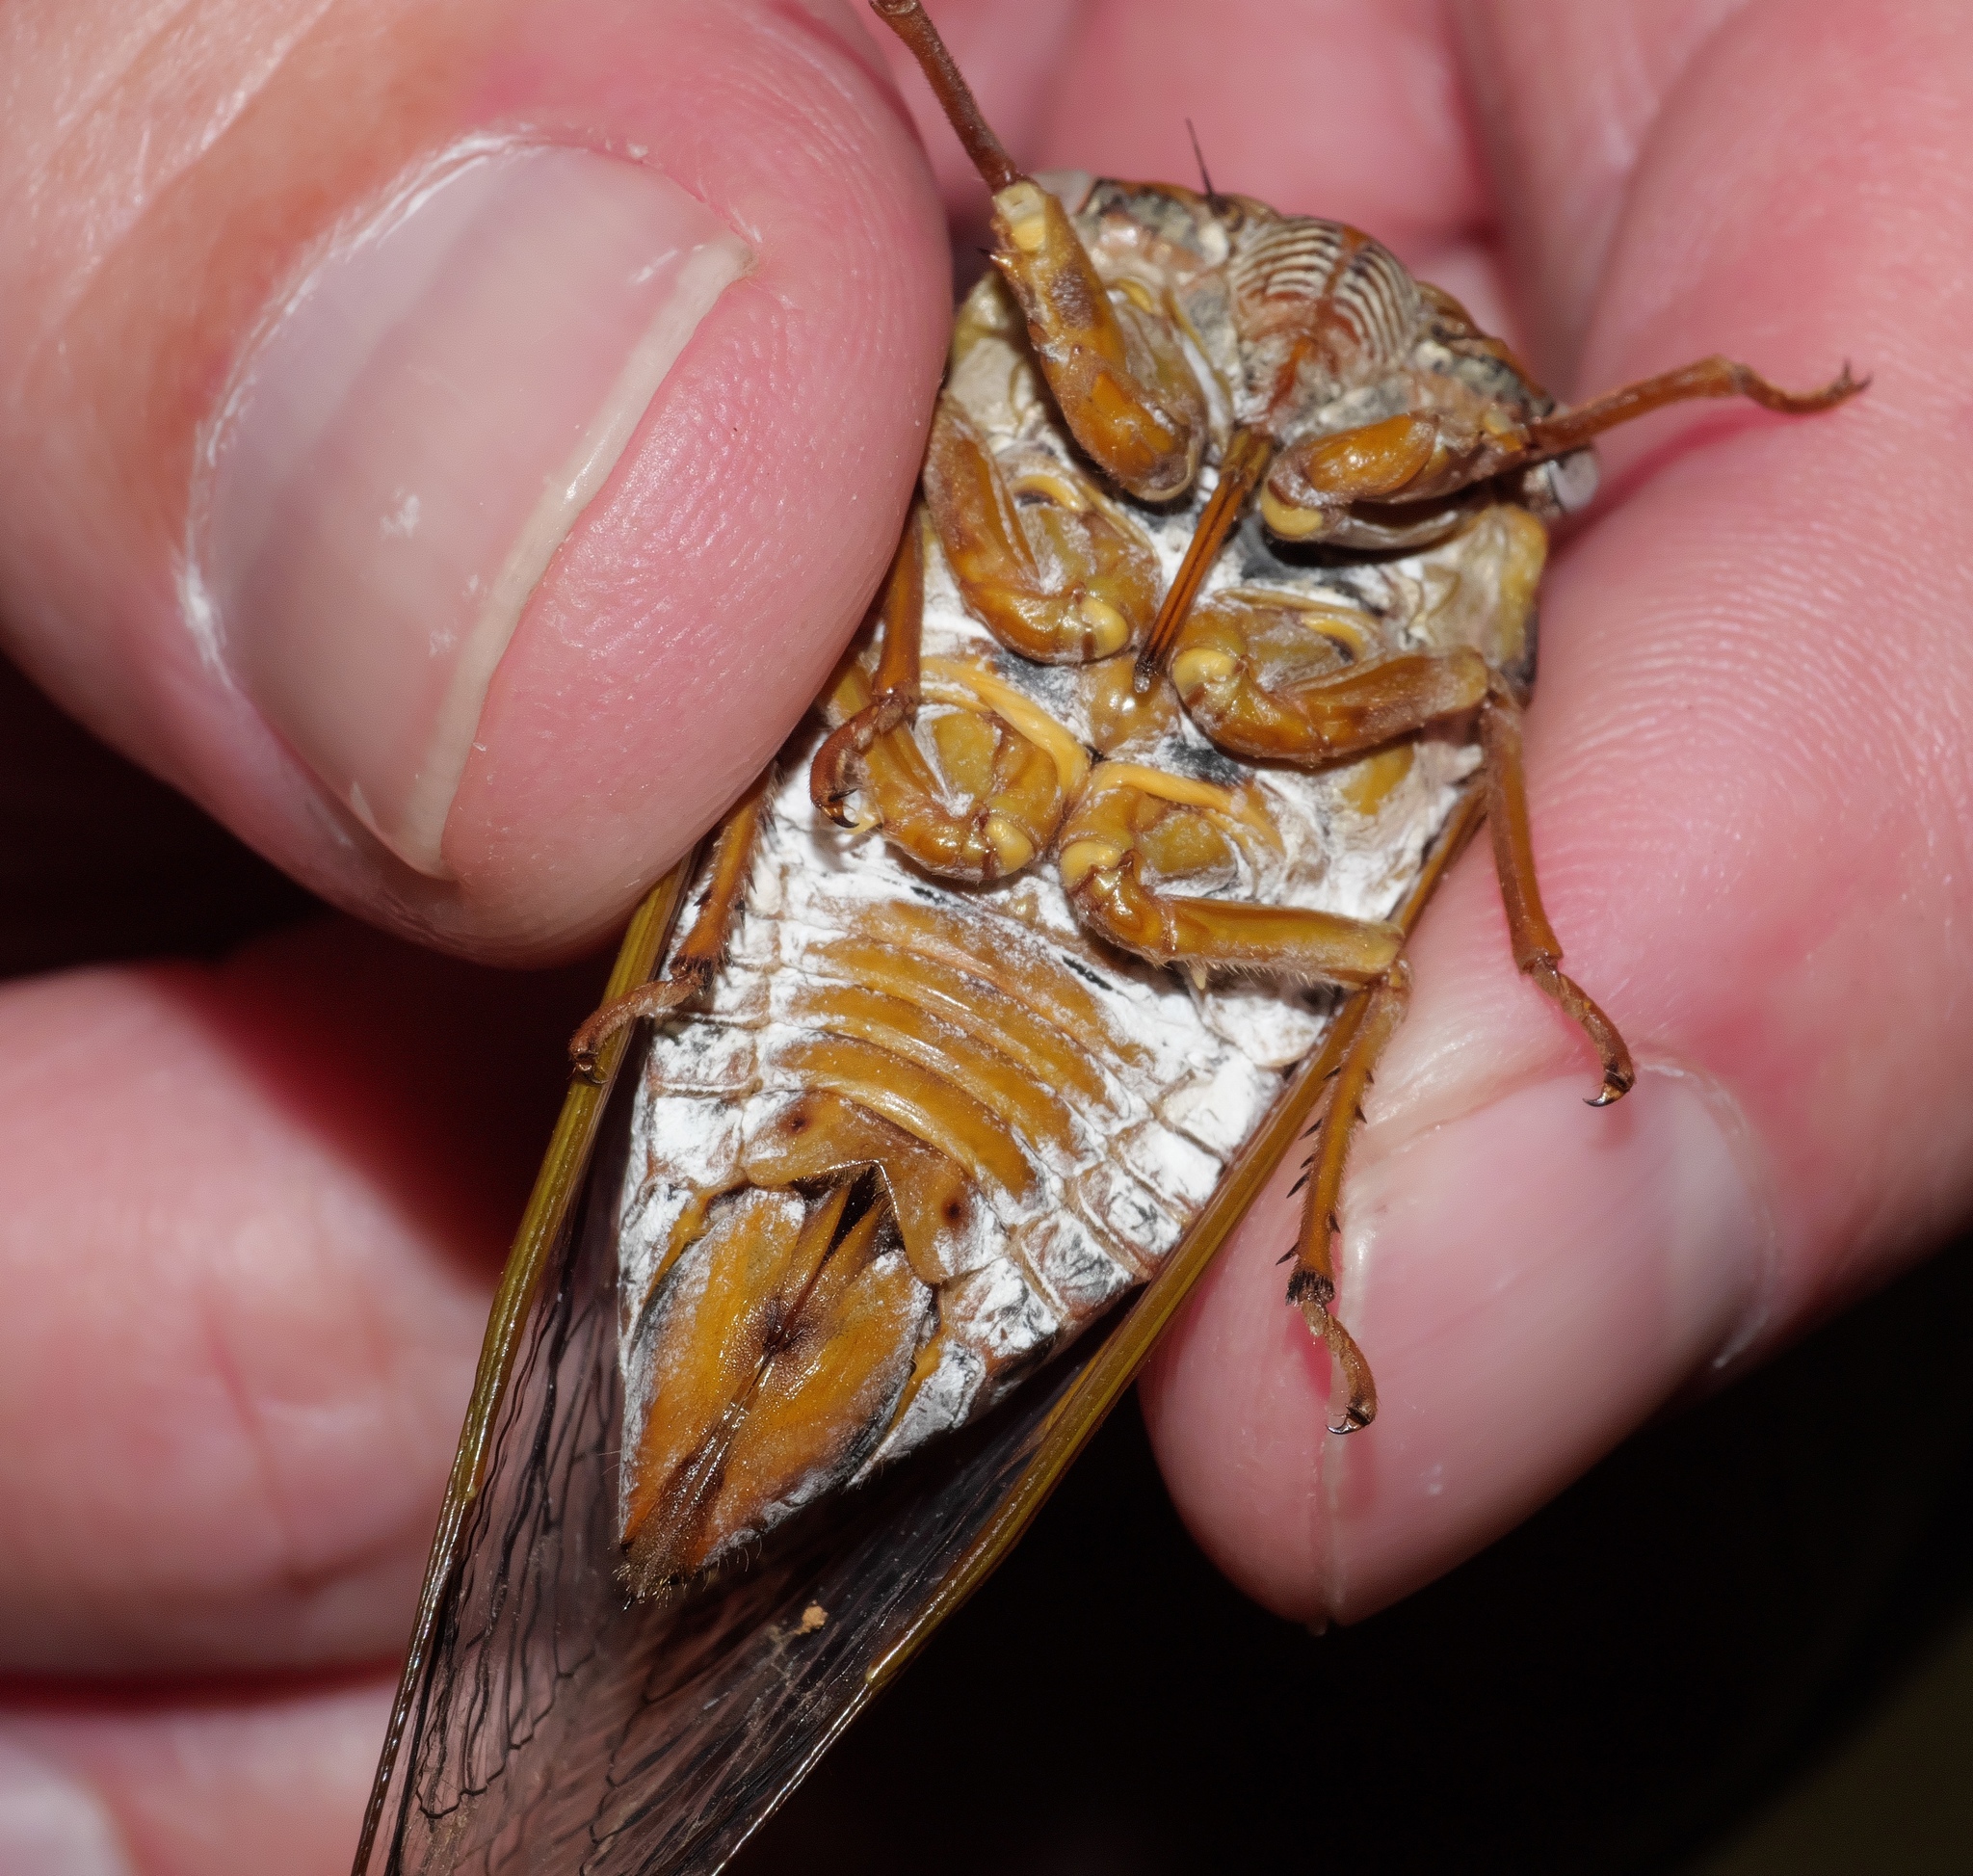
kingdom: Animalia
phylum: Arthropoda
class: Insecta
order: Hemiptera
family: Cicadidae
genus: Megatibicen
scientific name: Megatibicen dealbatus
